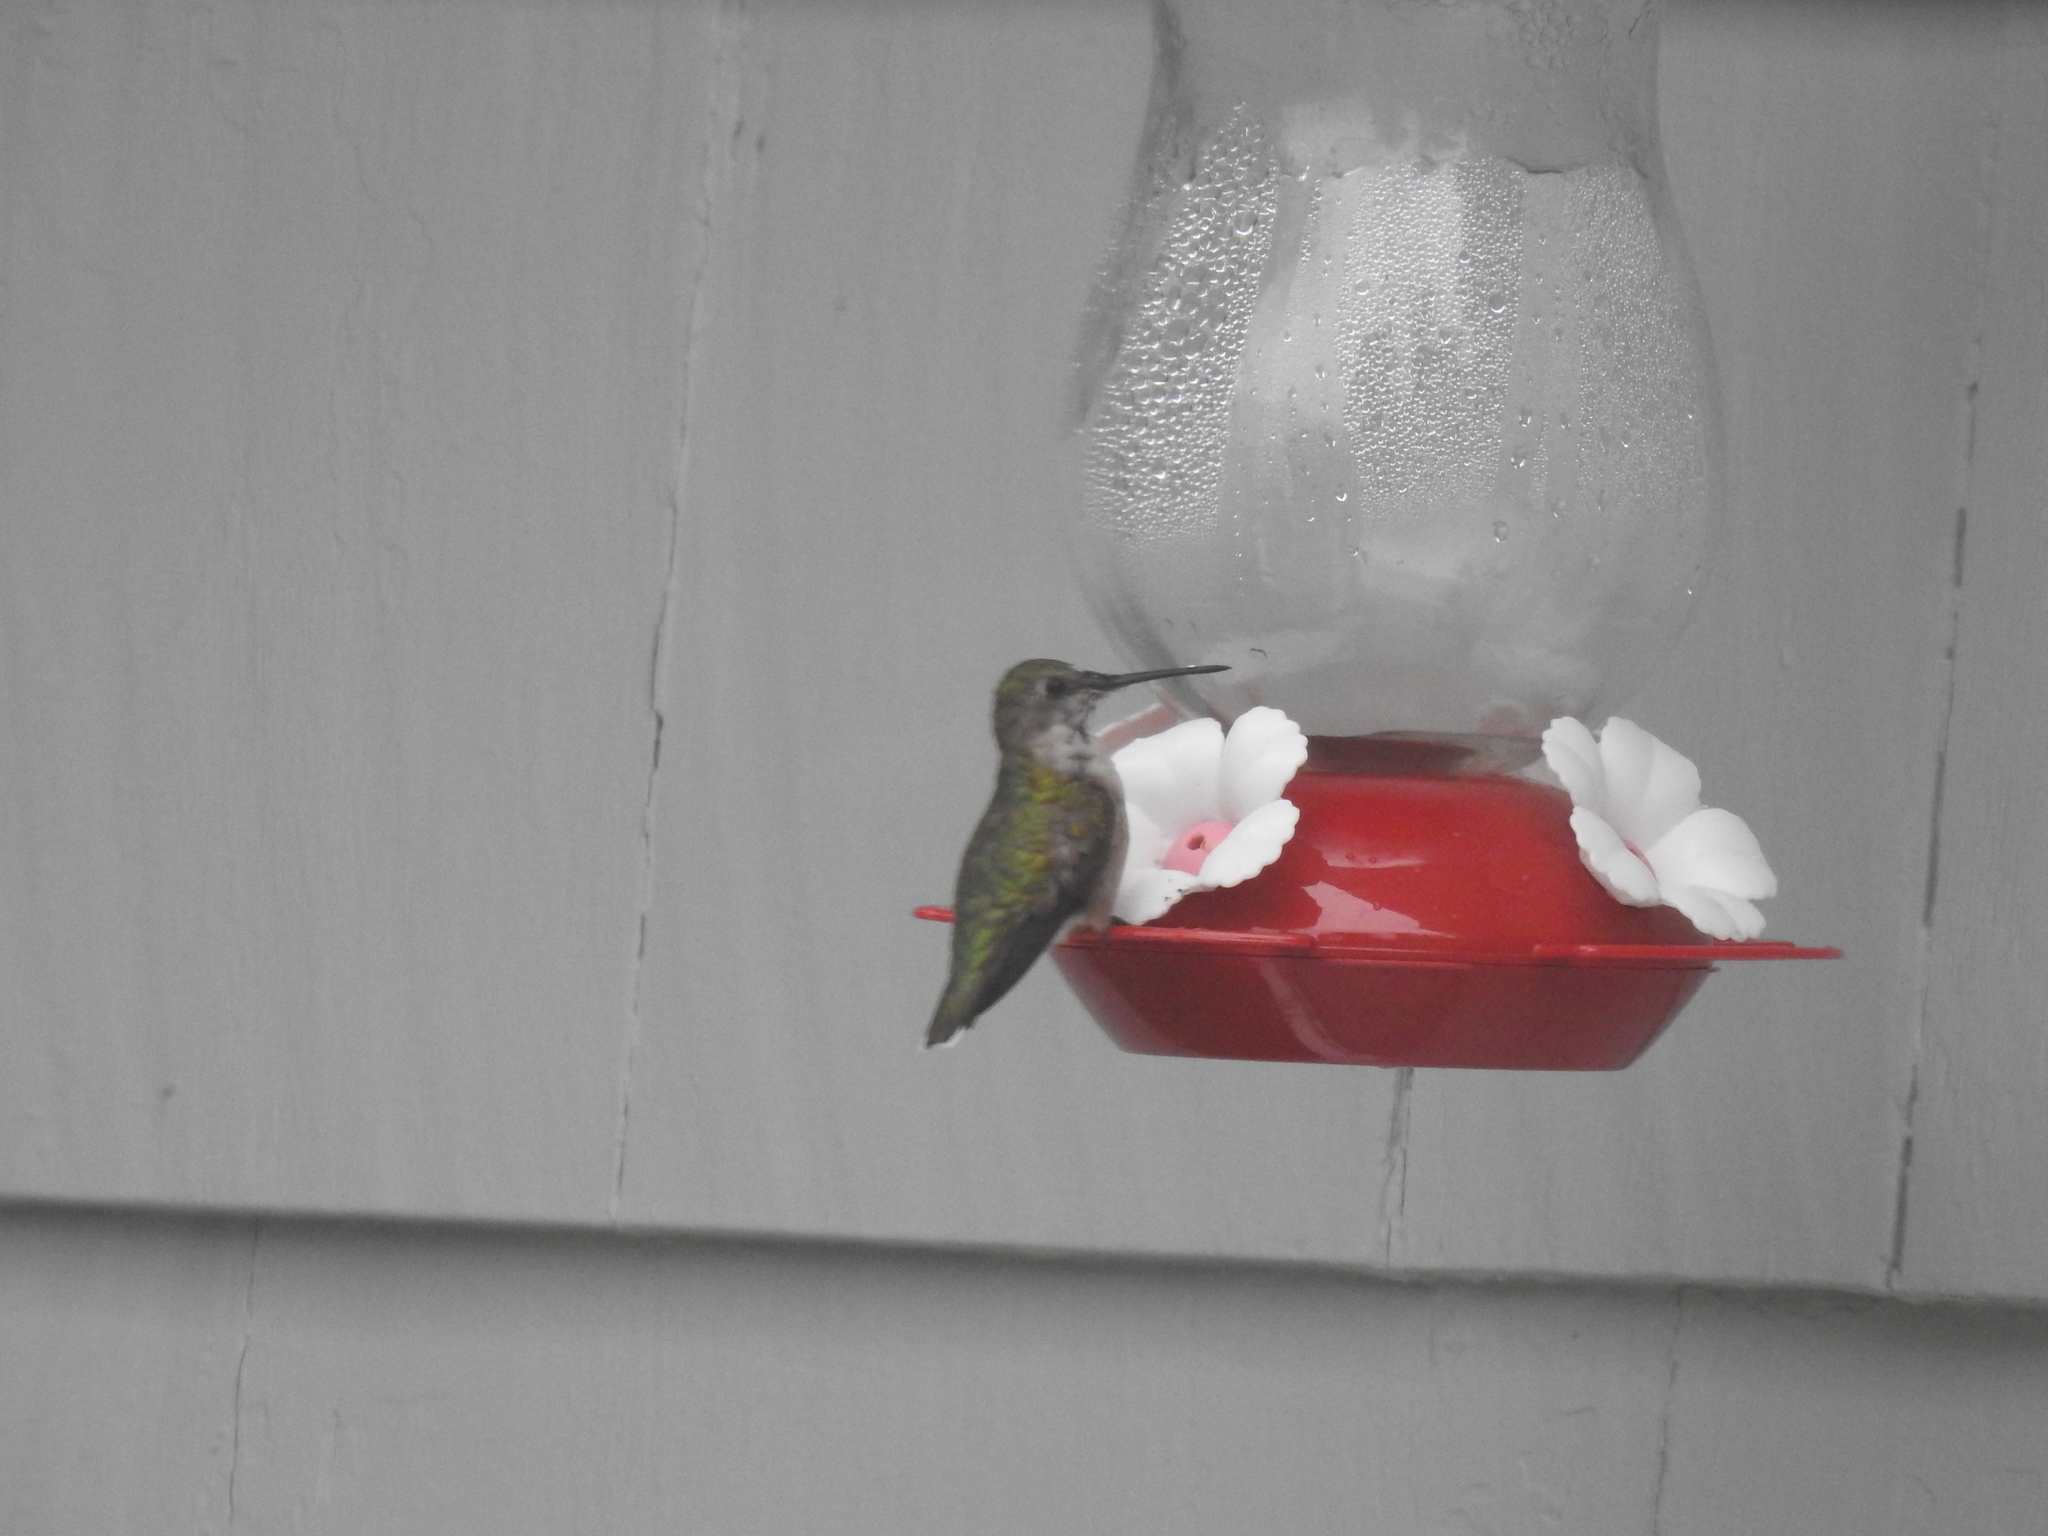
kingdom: Animalia
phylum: Chordata
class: Aves
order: Apodiformes
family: Trochilidae
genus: Archilochus
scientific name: Archilochus colubris
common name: Ruby-throated hummingbird
